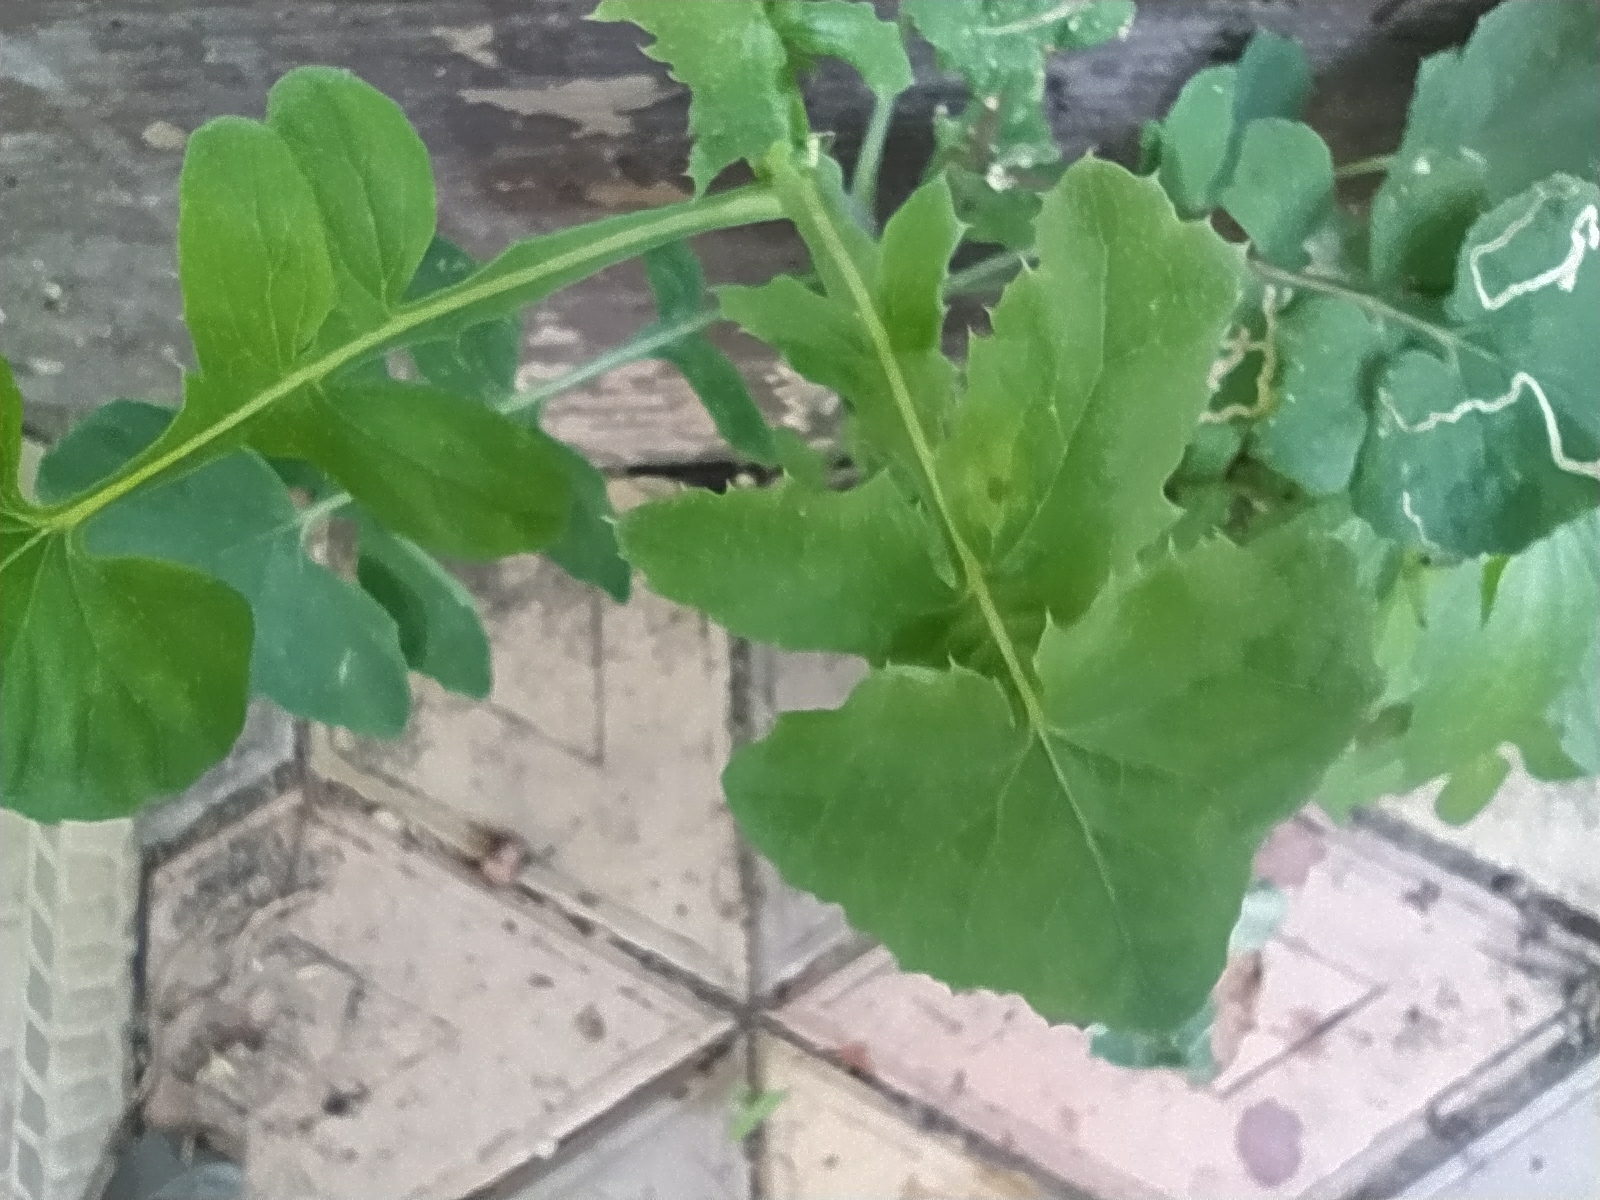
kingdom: Plantae
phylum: Tracheophyta
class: Magnoliopsida
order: Asterales
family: Asteraceae
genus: Sonchus
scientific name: Sonchus oleraceus
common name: Common sowthistle
